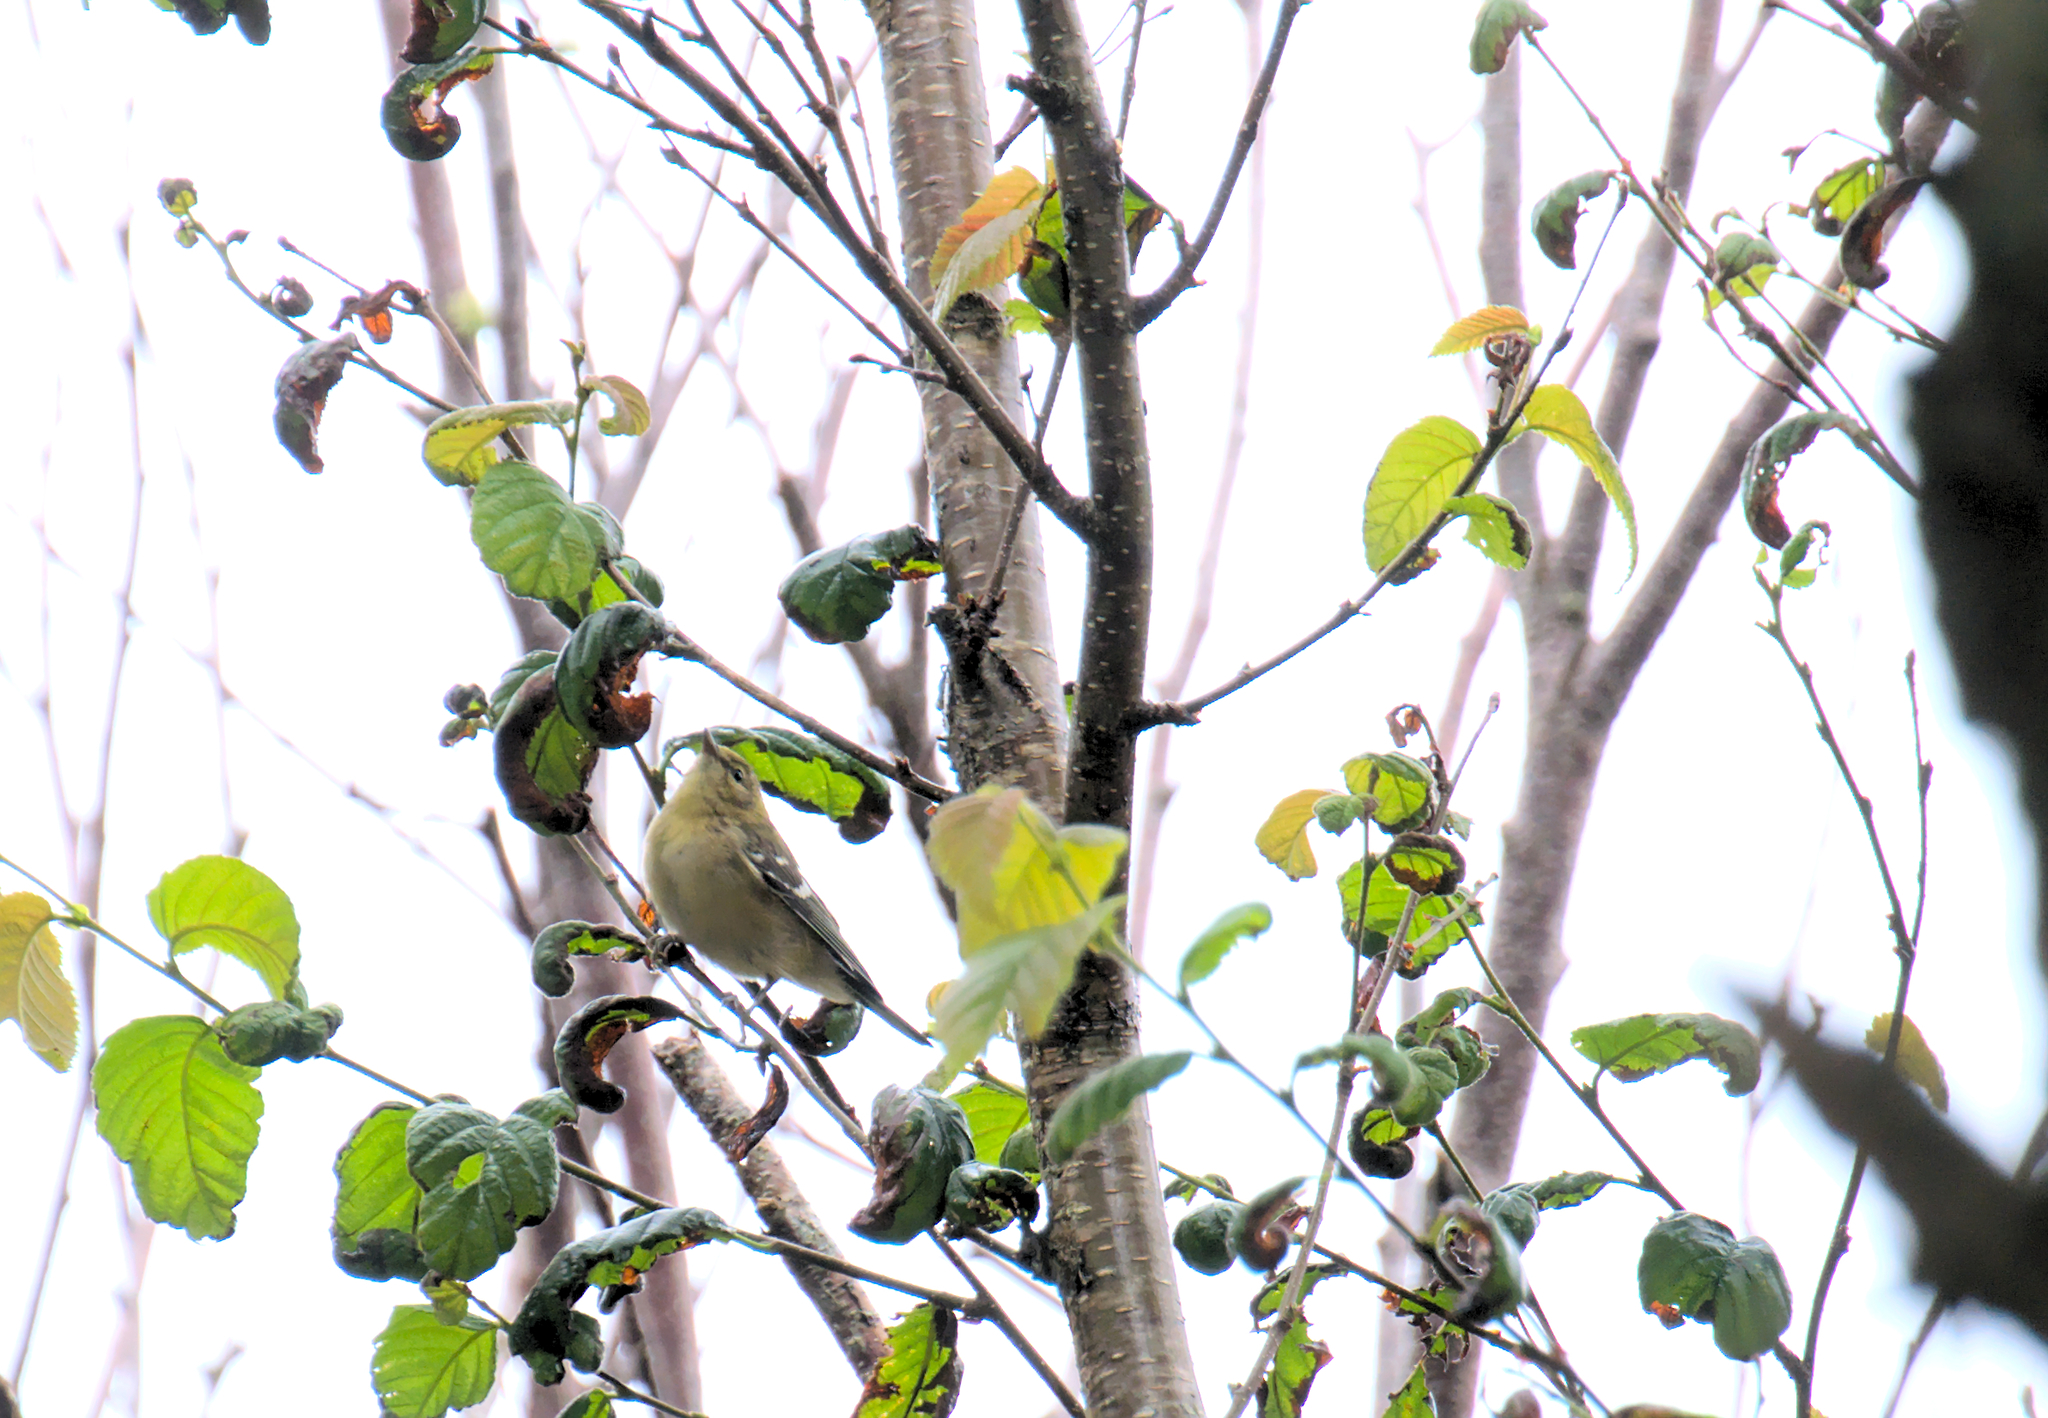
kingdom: Animalia
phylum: Chordata
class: Aves
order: Passeriformes
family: Parulidae
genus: Setophaga
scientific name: Setophaga castanea
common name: Bay-breasted warbler
